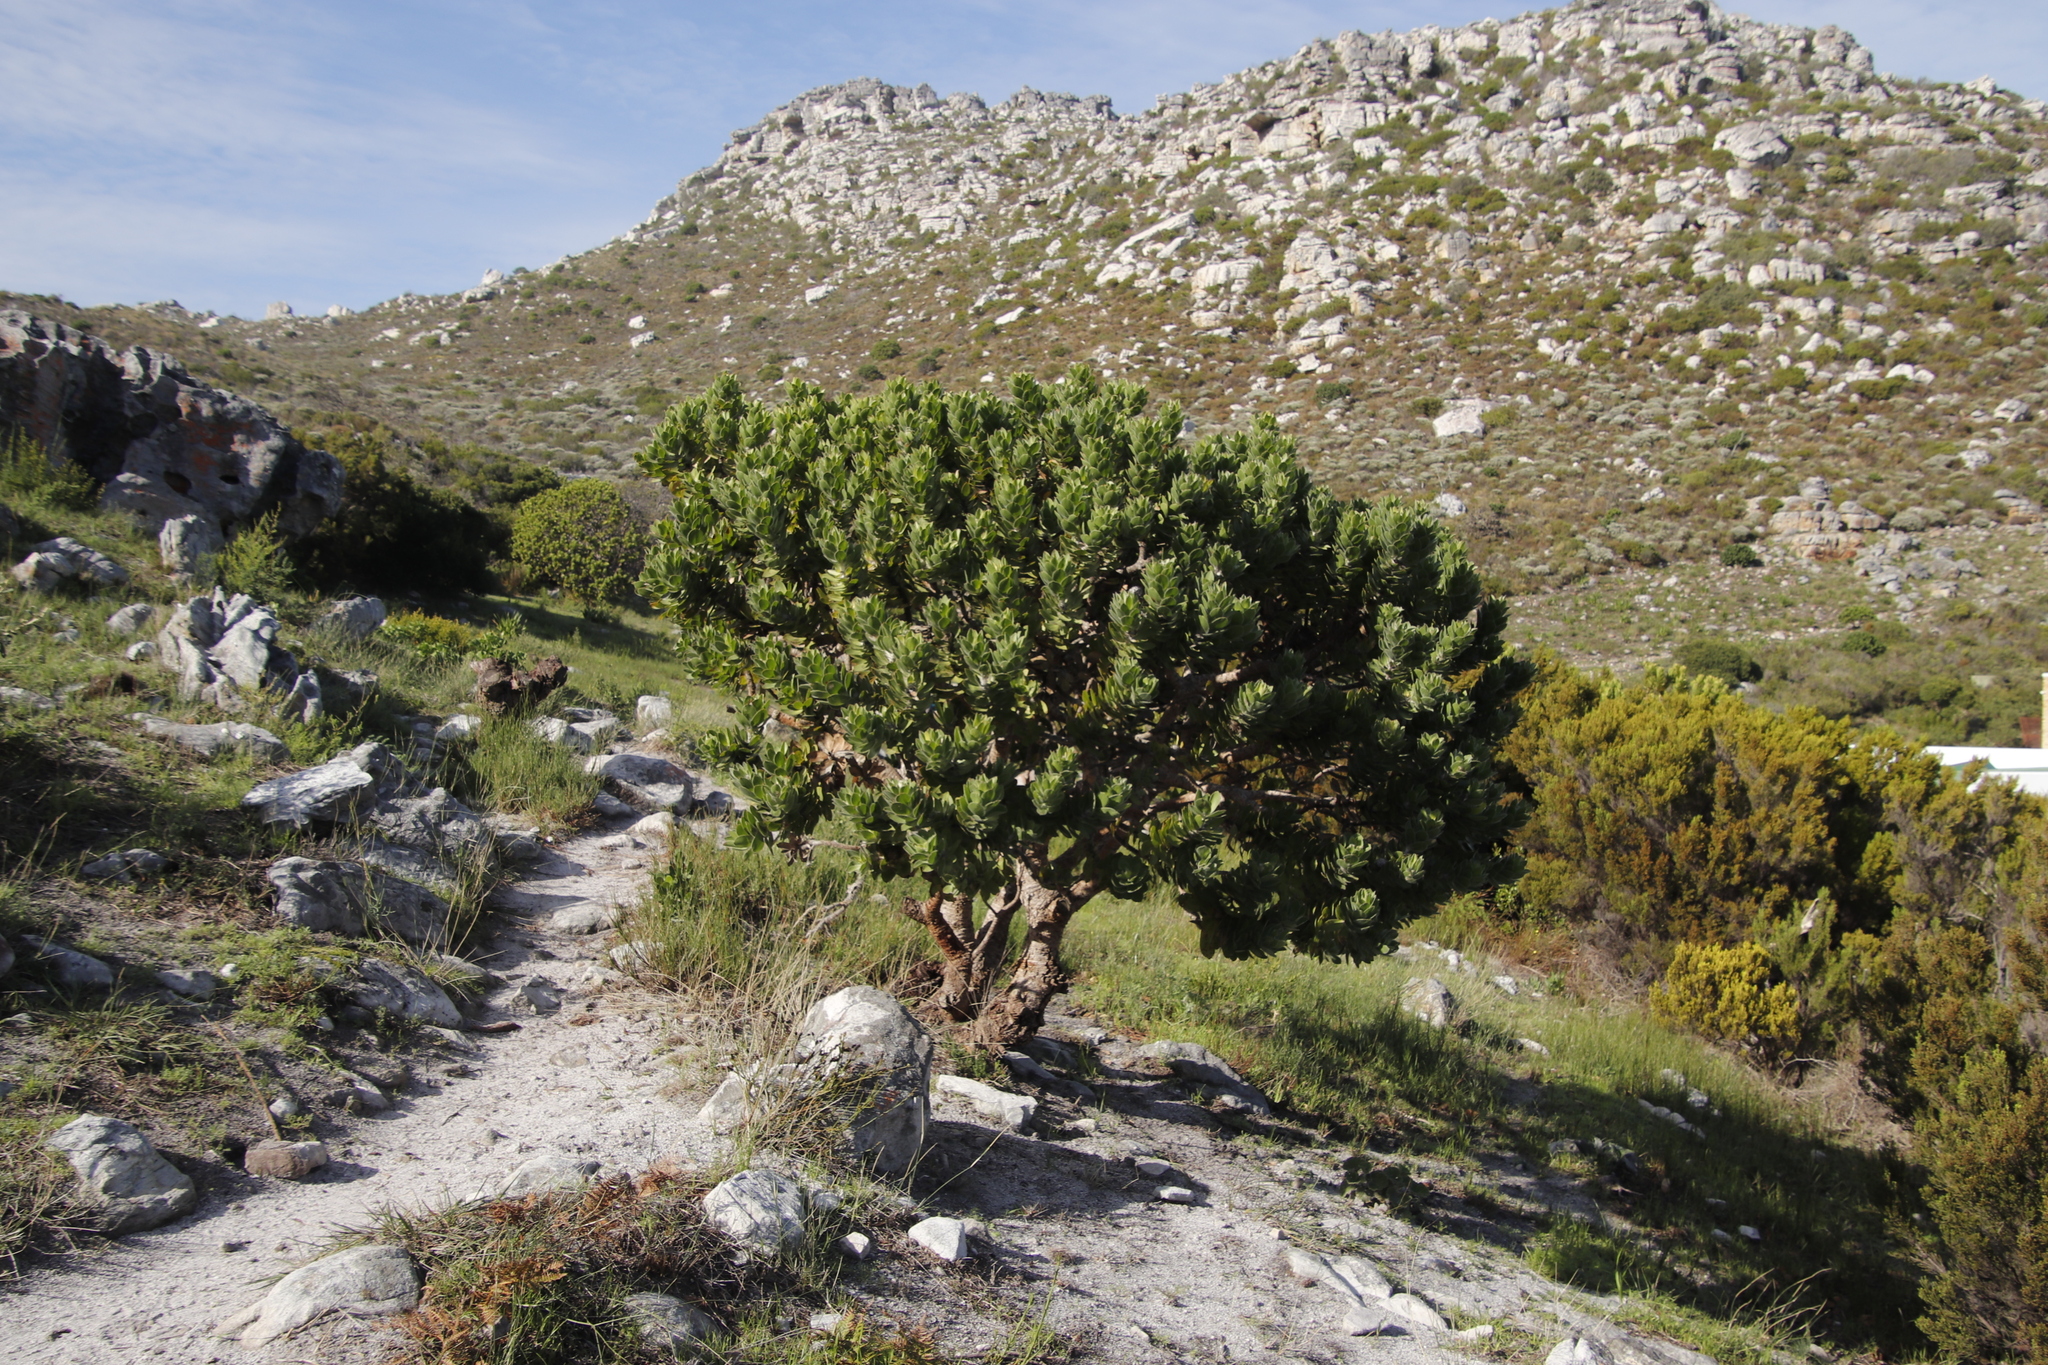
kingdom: Plantae
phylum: Tracheophyta
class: Magnoliopsida
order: Proteales
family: Proteaceae
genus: Leucospermum
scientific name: Leucospermum conocarpodendron
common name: Tree pincushion
